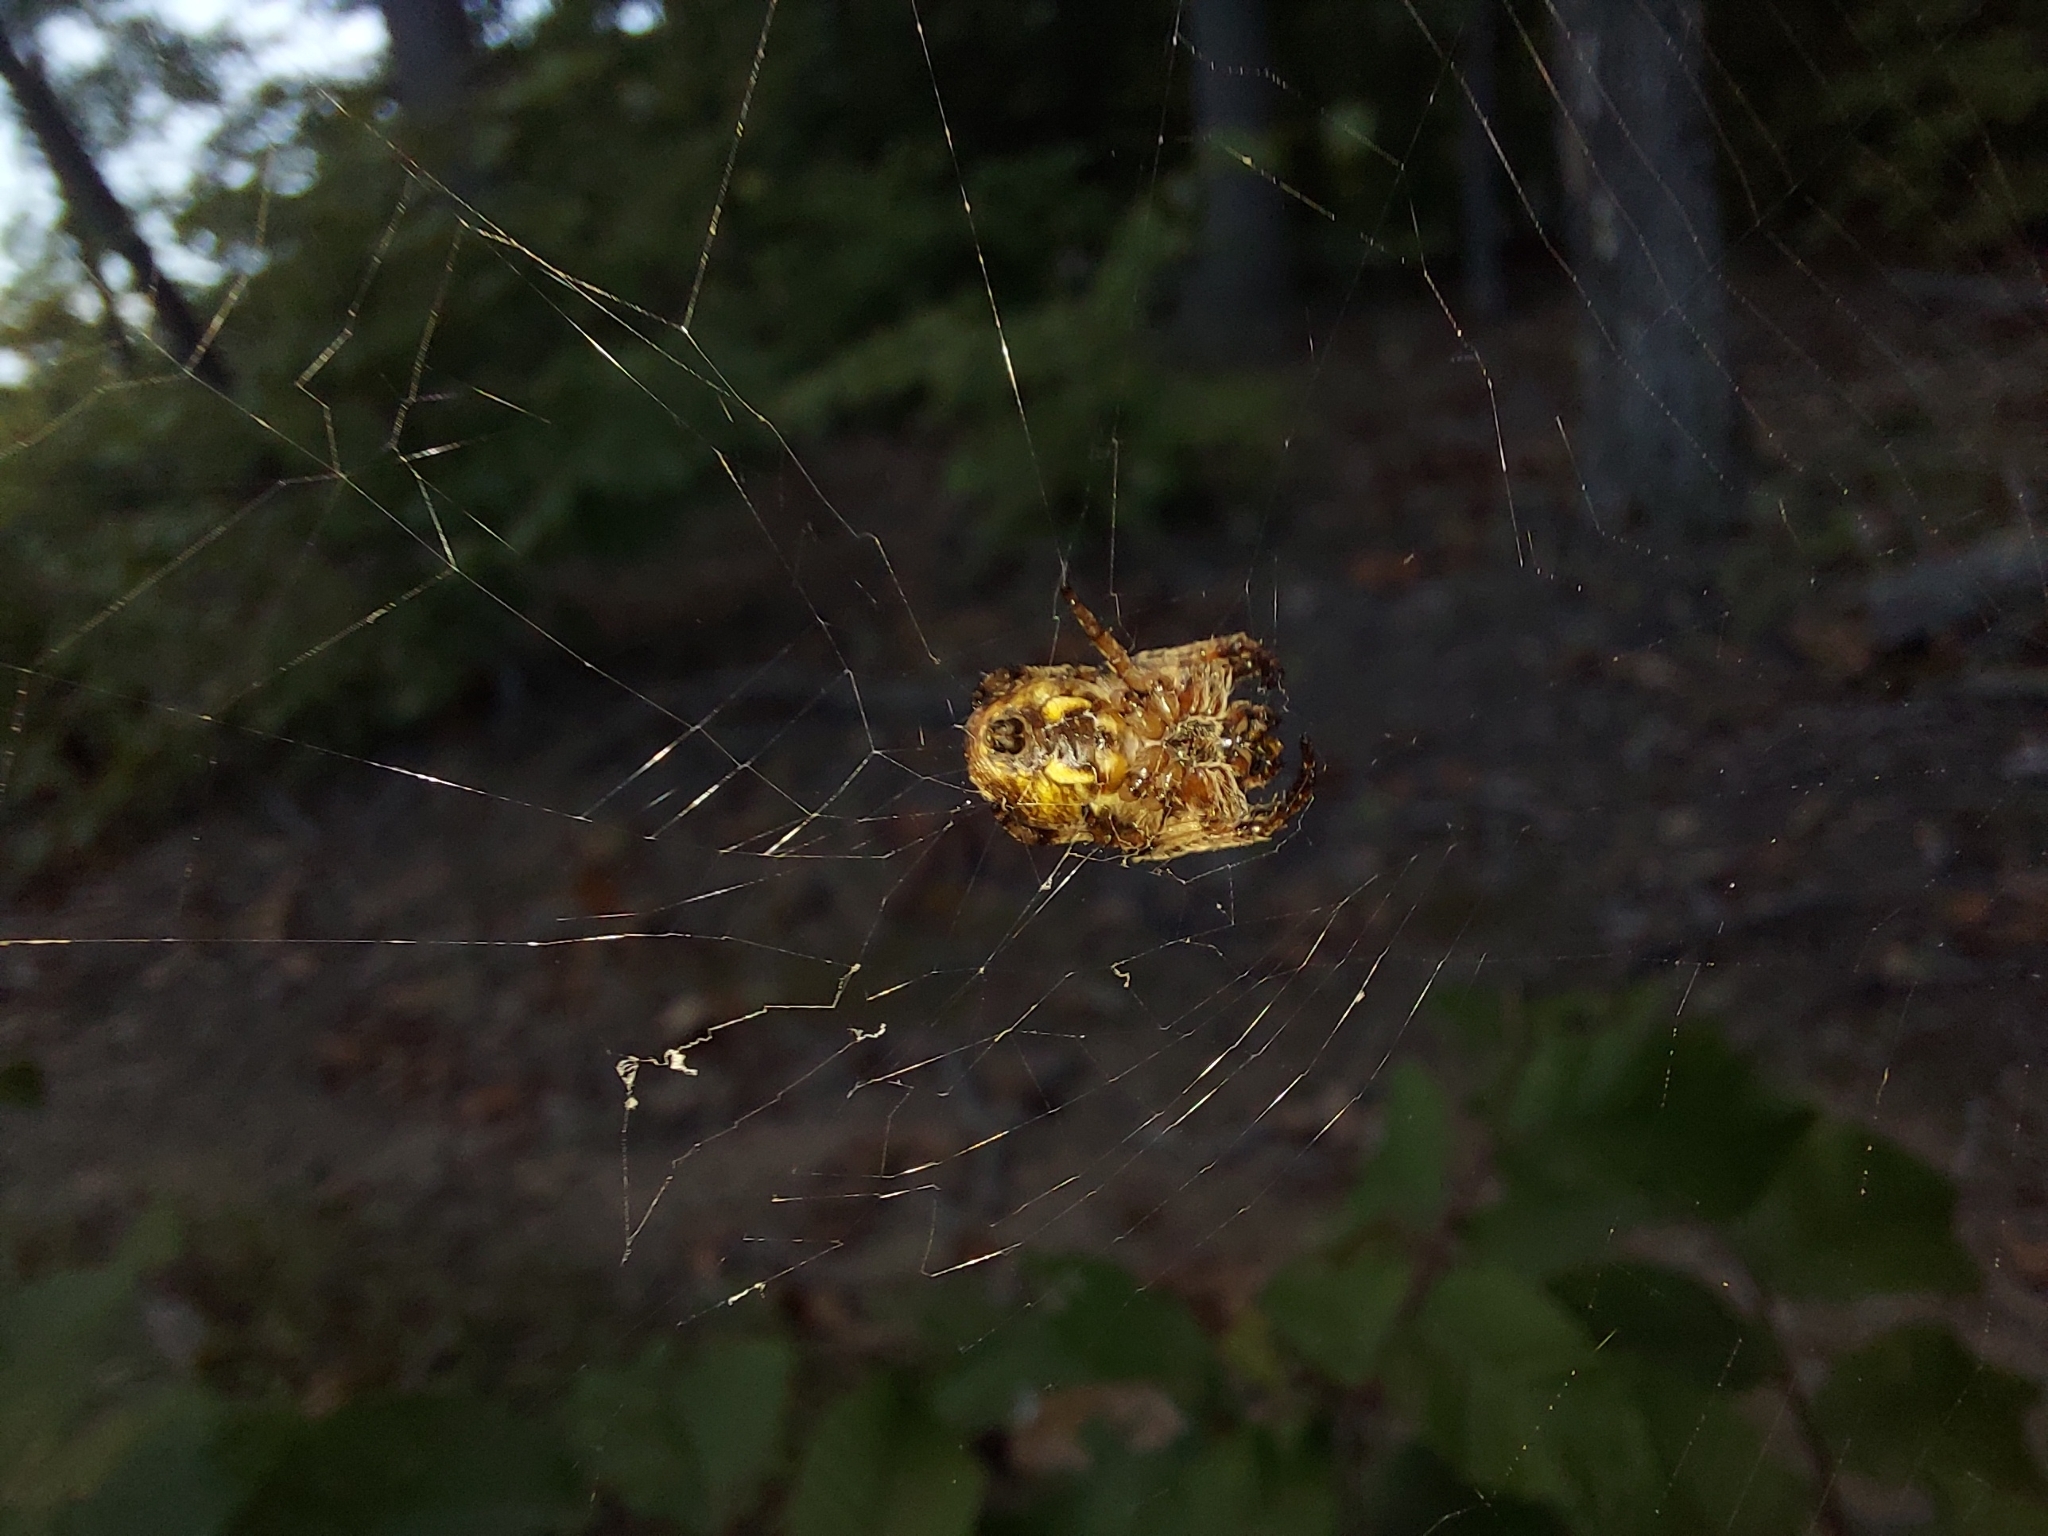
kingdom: Animalia
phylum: Arthropoda
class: Arachnida
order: Araneae
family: Araneidae
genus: Larinioides
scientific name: Larinioides cornutus
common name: Furrow orbweaver
